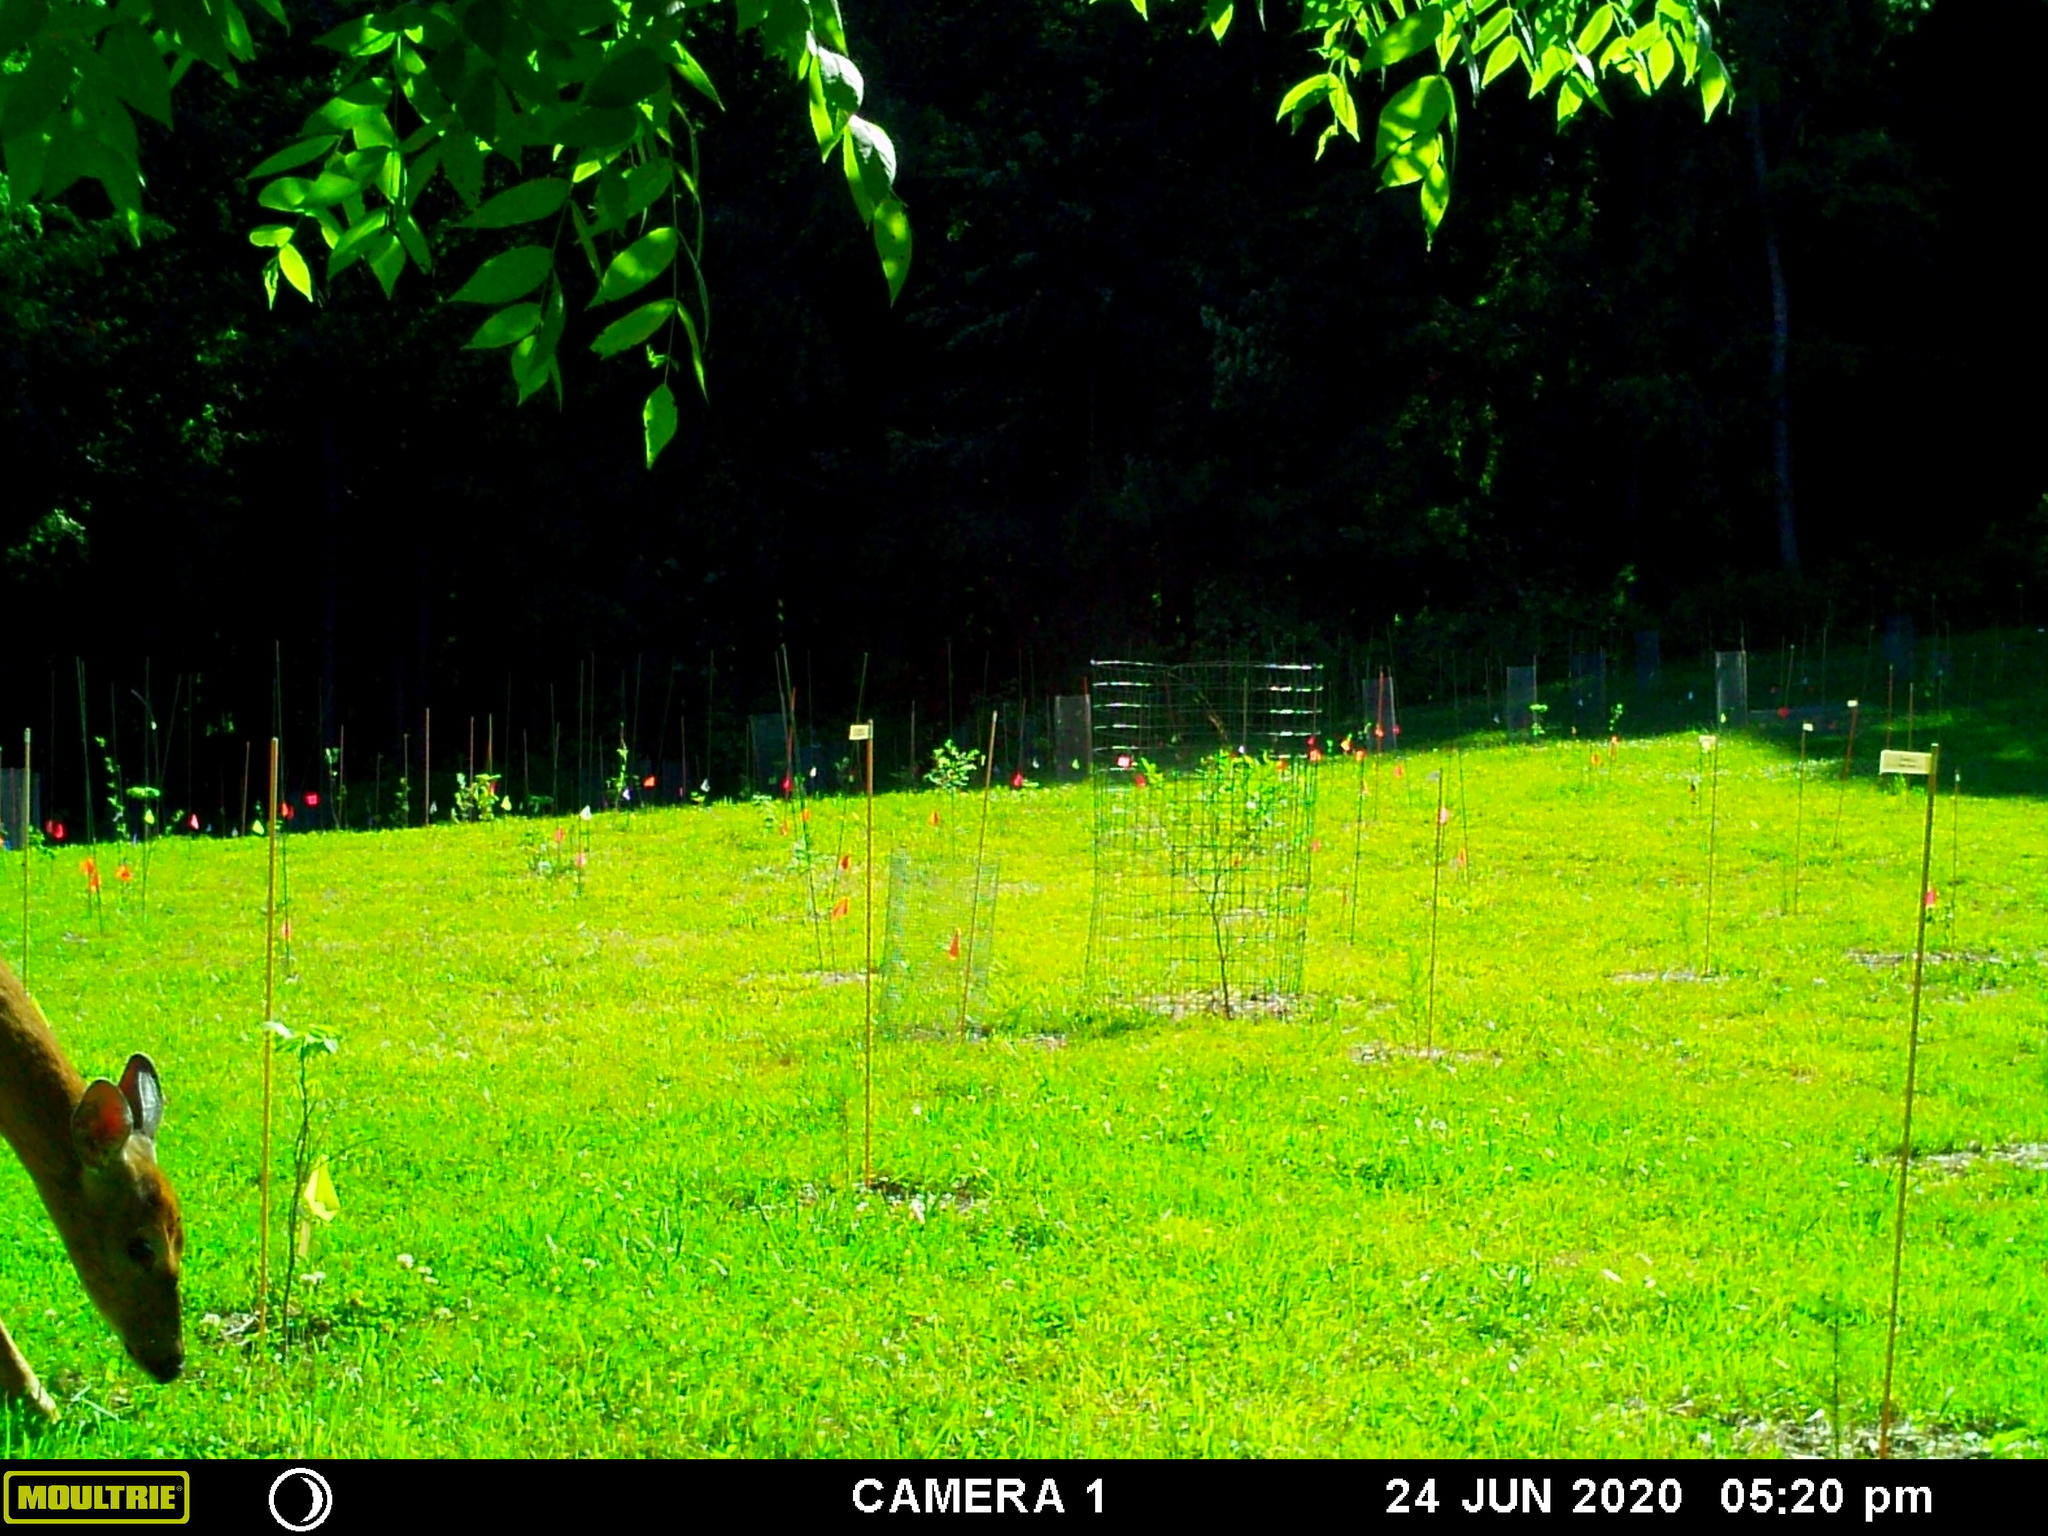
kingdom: Animalia
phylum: Chordata
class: Mammalia
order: Artiodactyla
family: Cervidae
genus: Odocoileus
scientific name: Odocoileus virginianus
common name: White-tailed deer
